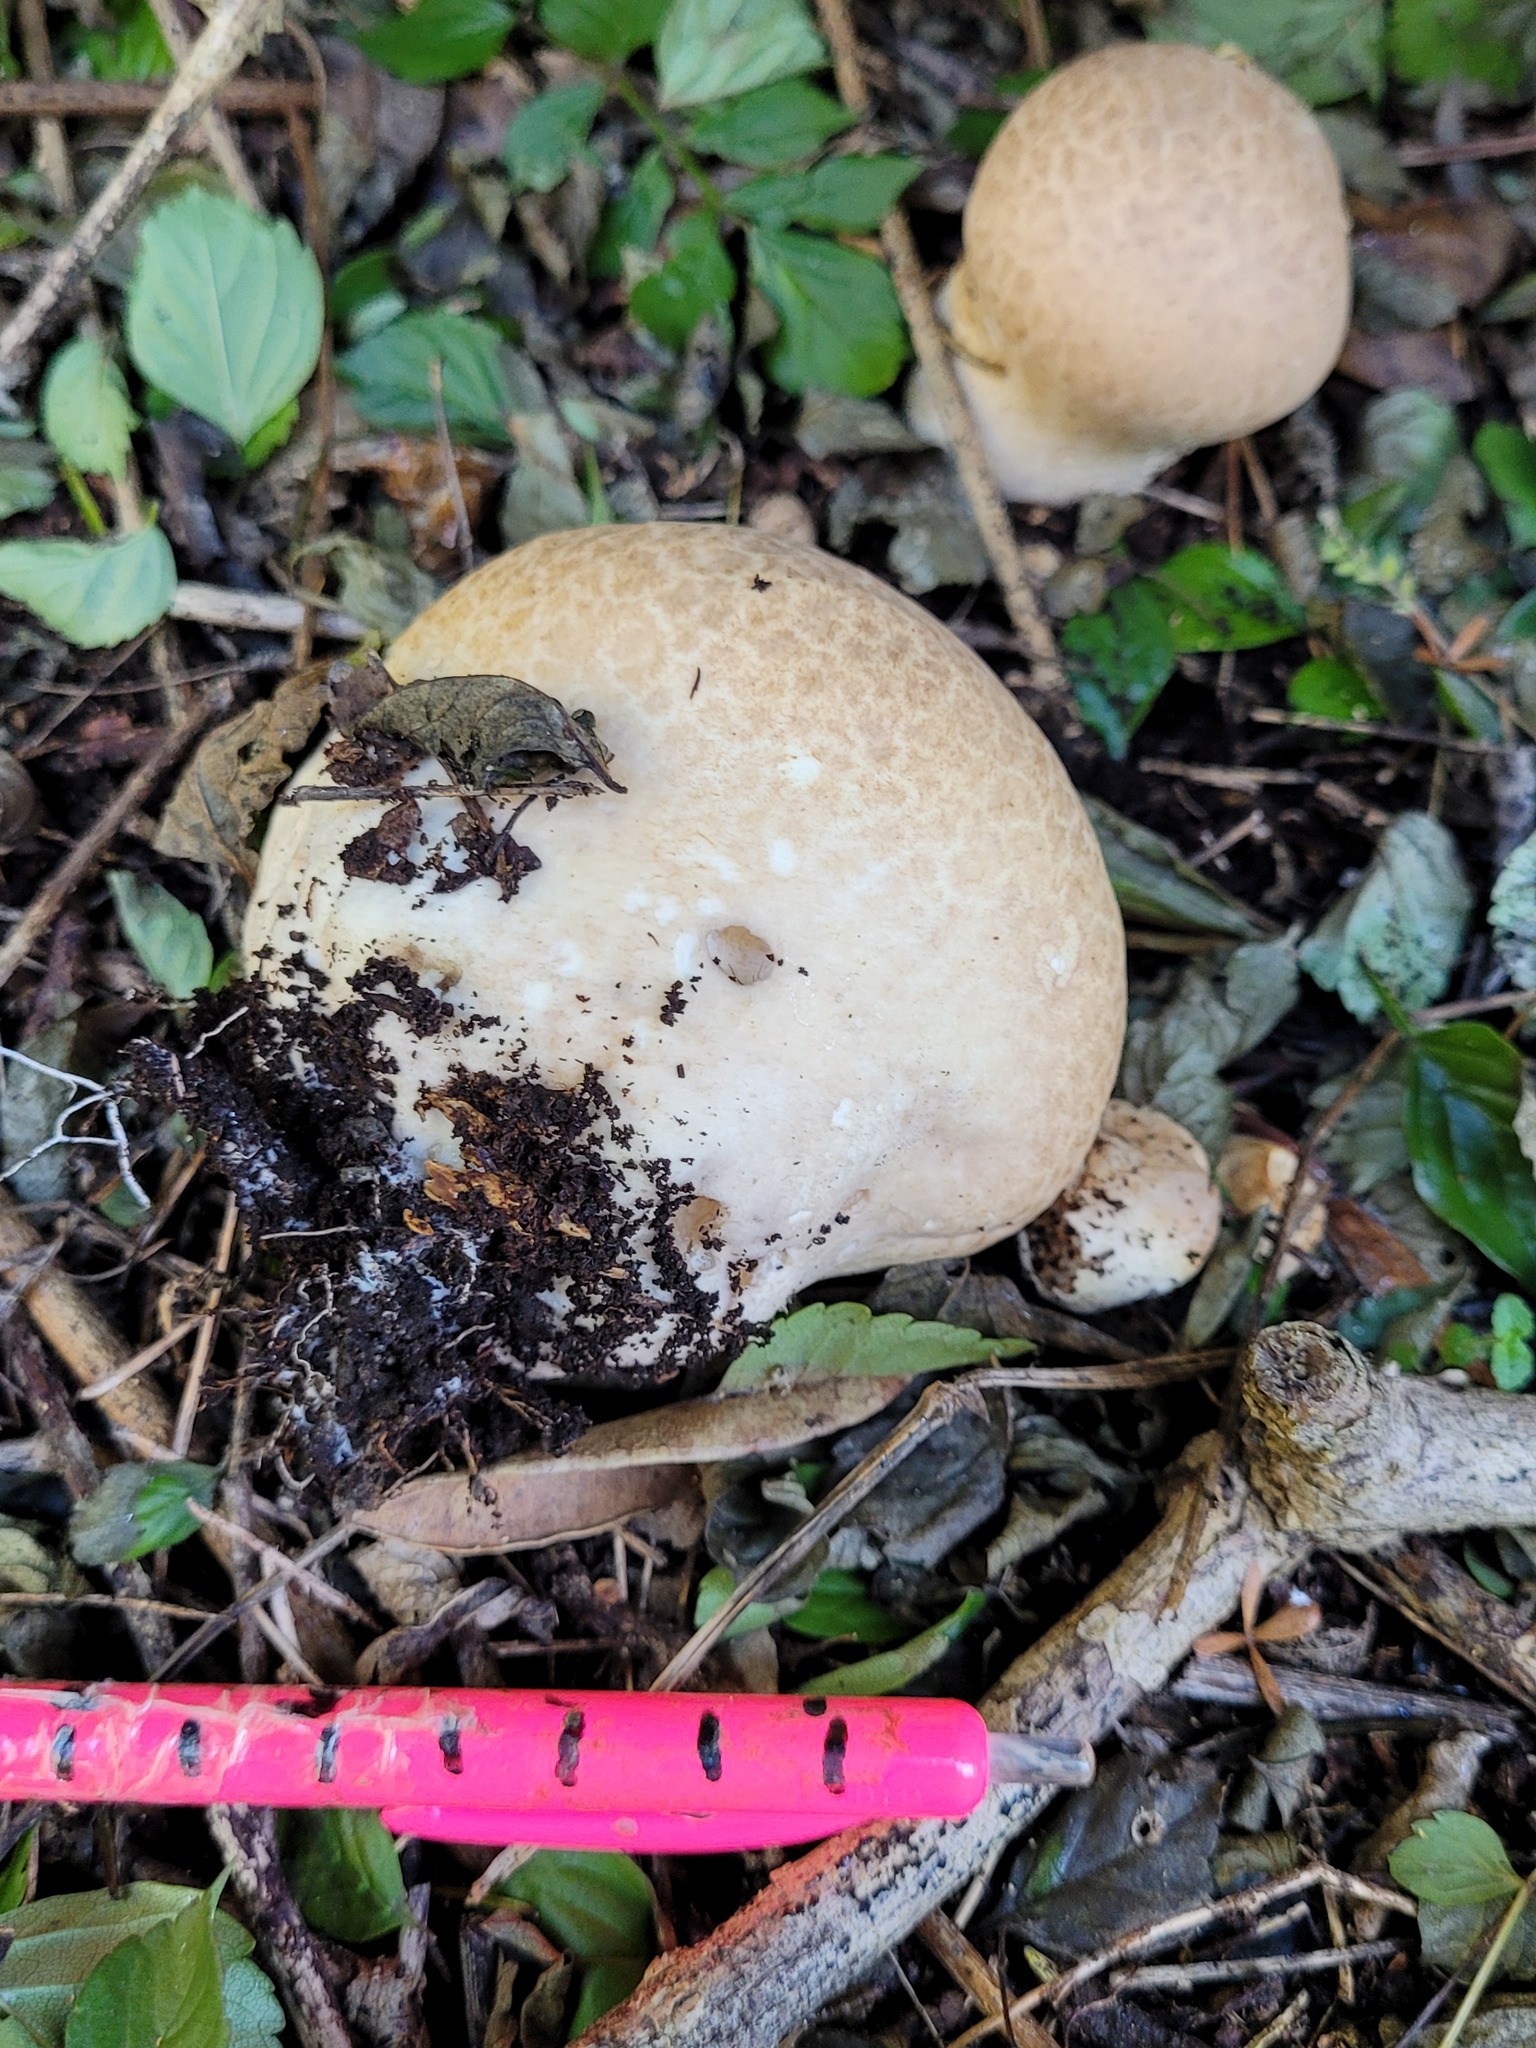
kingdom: Fungi
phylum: Basidiomycota
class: Agaricomycetes
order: Agaricales
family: Lycoperdaceae
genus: Bovistella
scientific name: Bovistella utriformis
